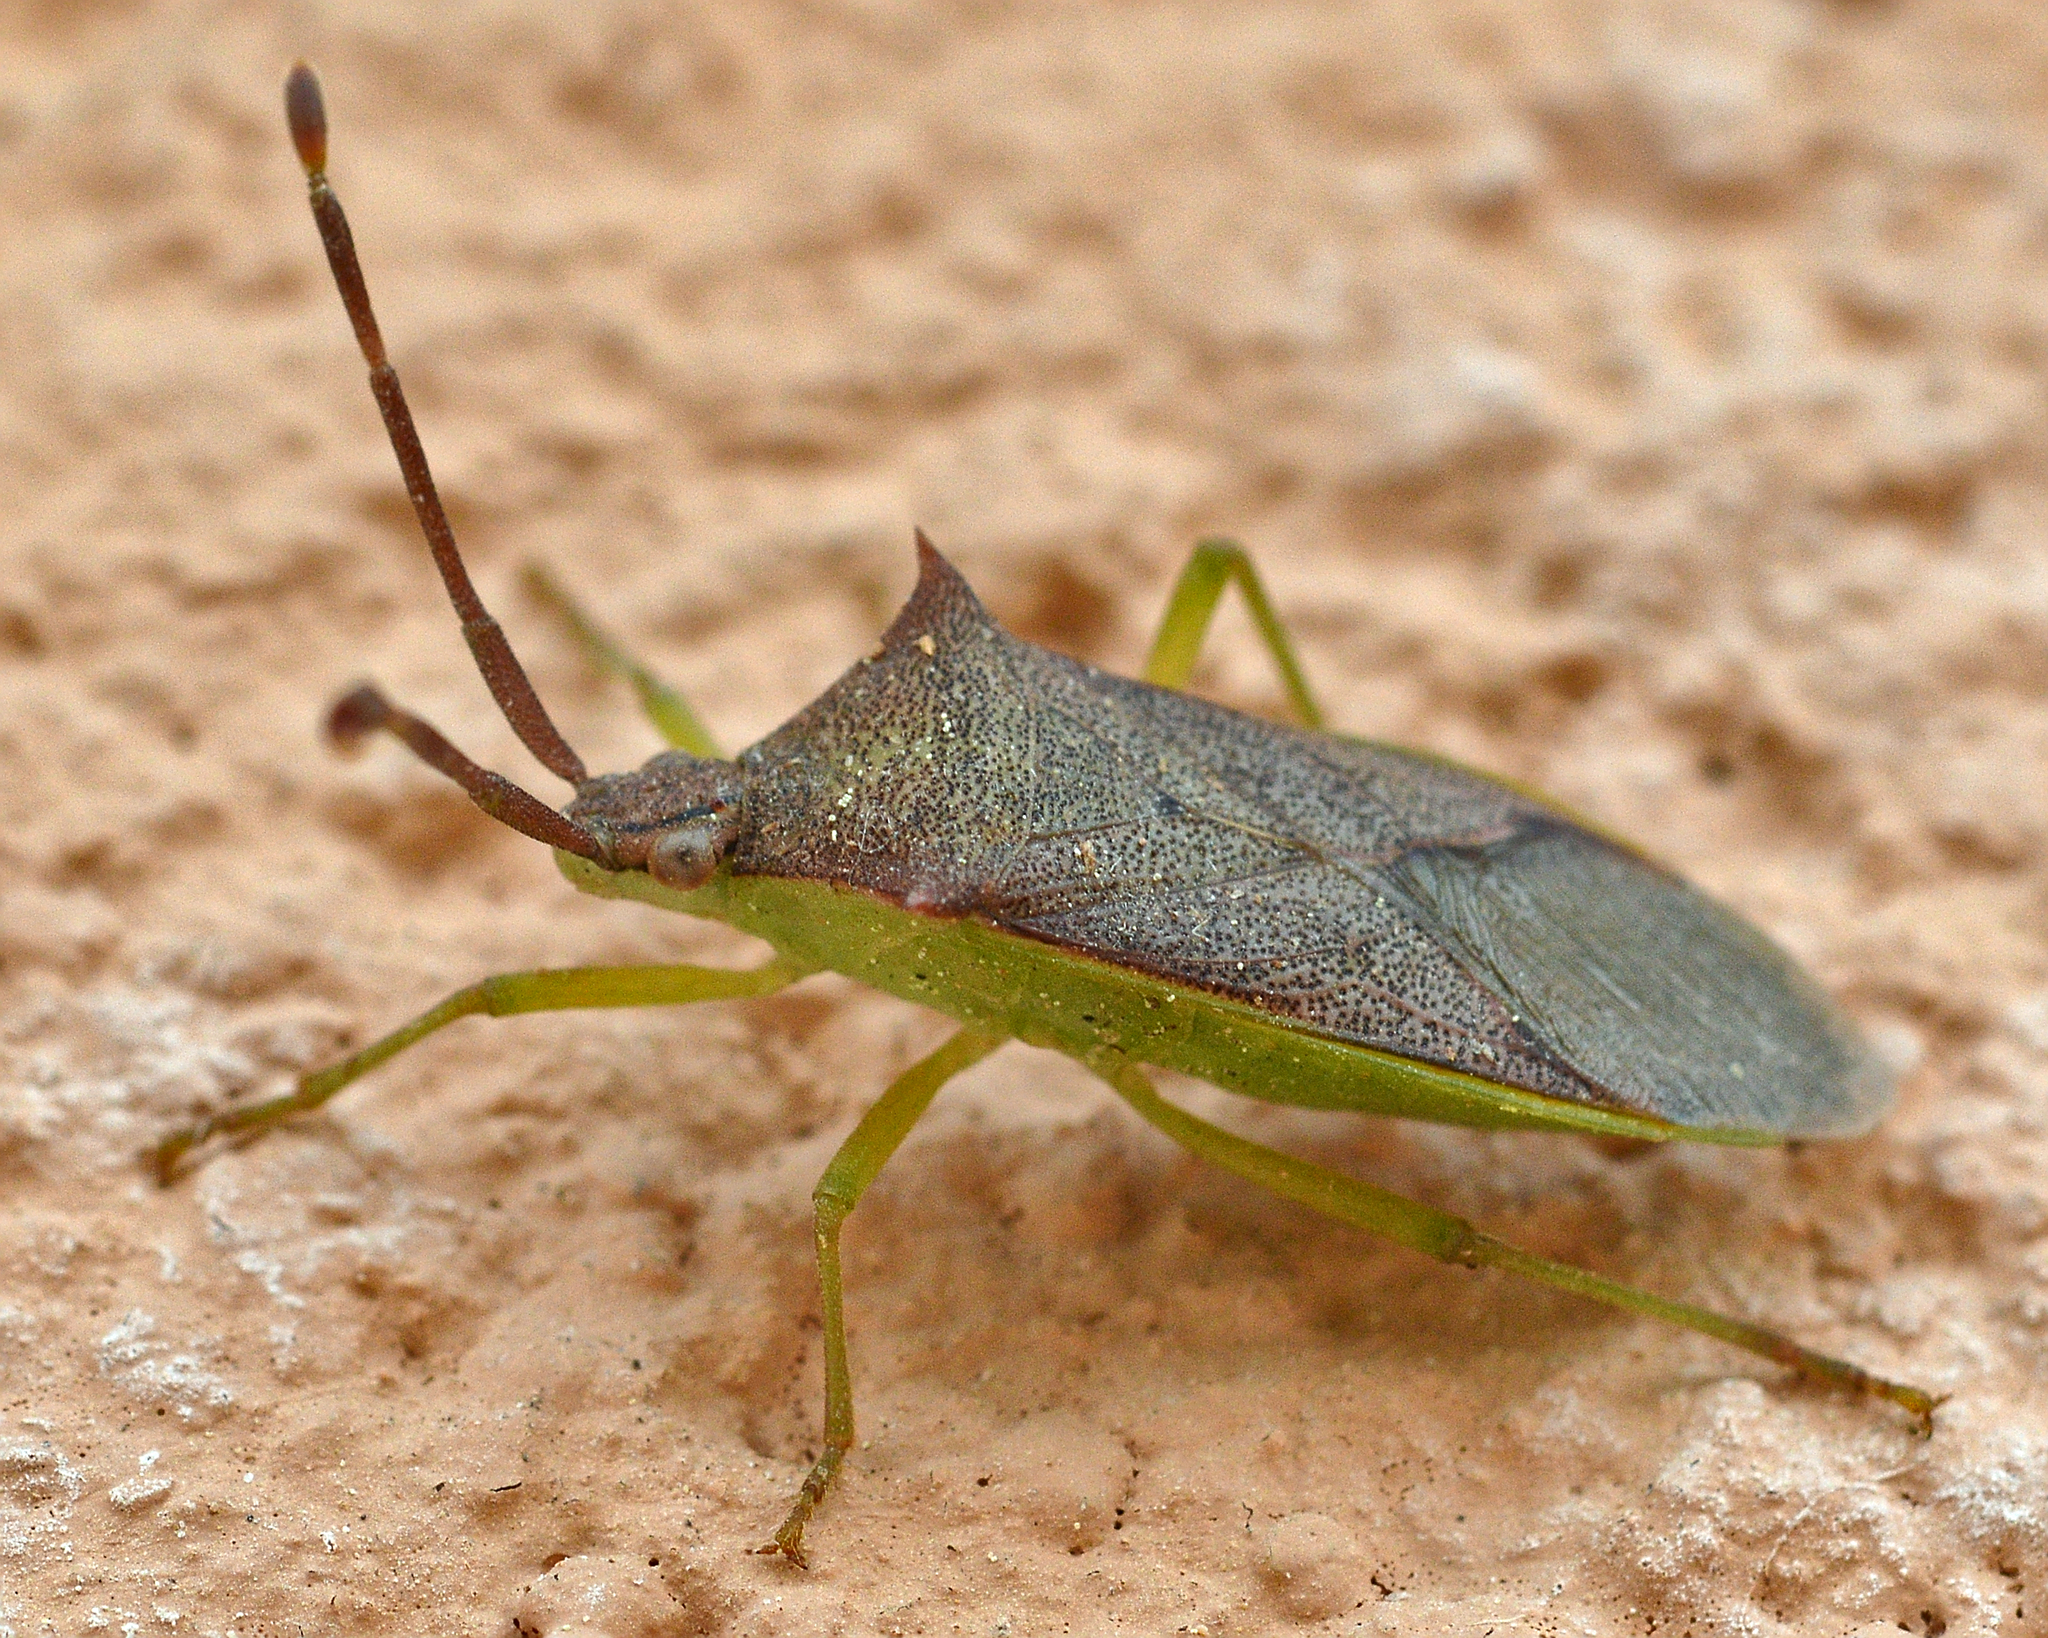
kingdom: Animalia
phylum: Arthropoda
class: Insecta
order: Hemiptera
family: Coreidae
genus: Plinachtus
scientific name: Plinachtus imitator
